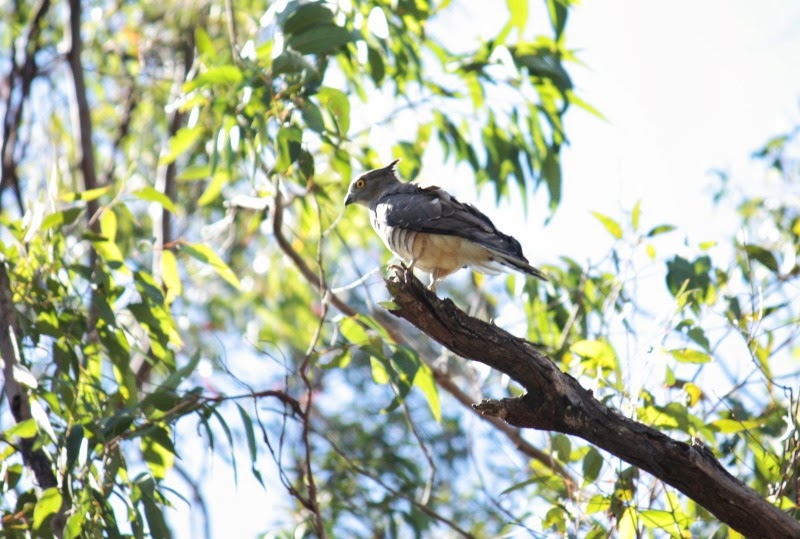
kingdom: Animalia
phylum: Chordata
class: Aves
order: Accipitriformes
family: Accipitridae
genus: Aviceda
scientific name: Aviceda subcristata
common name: Pacific baza
